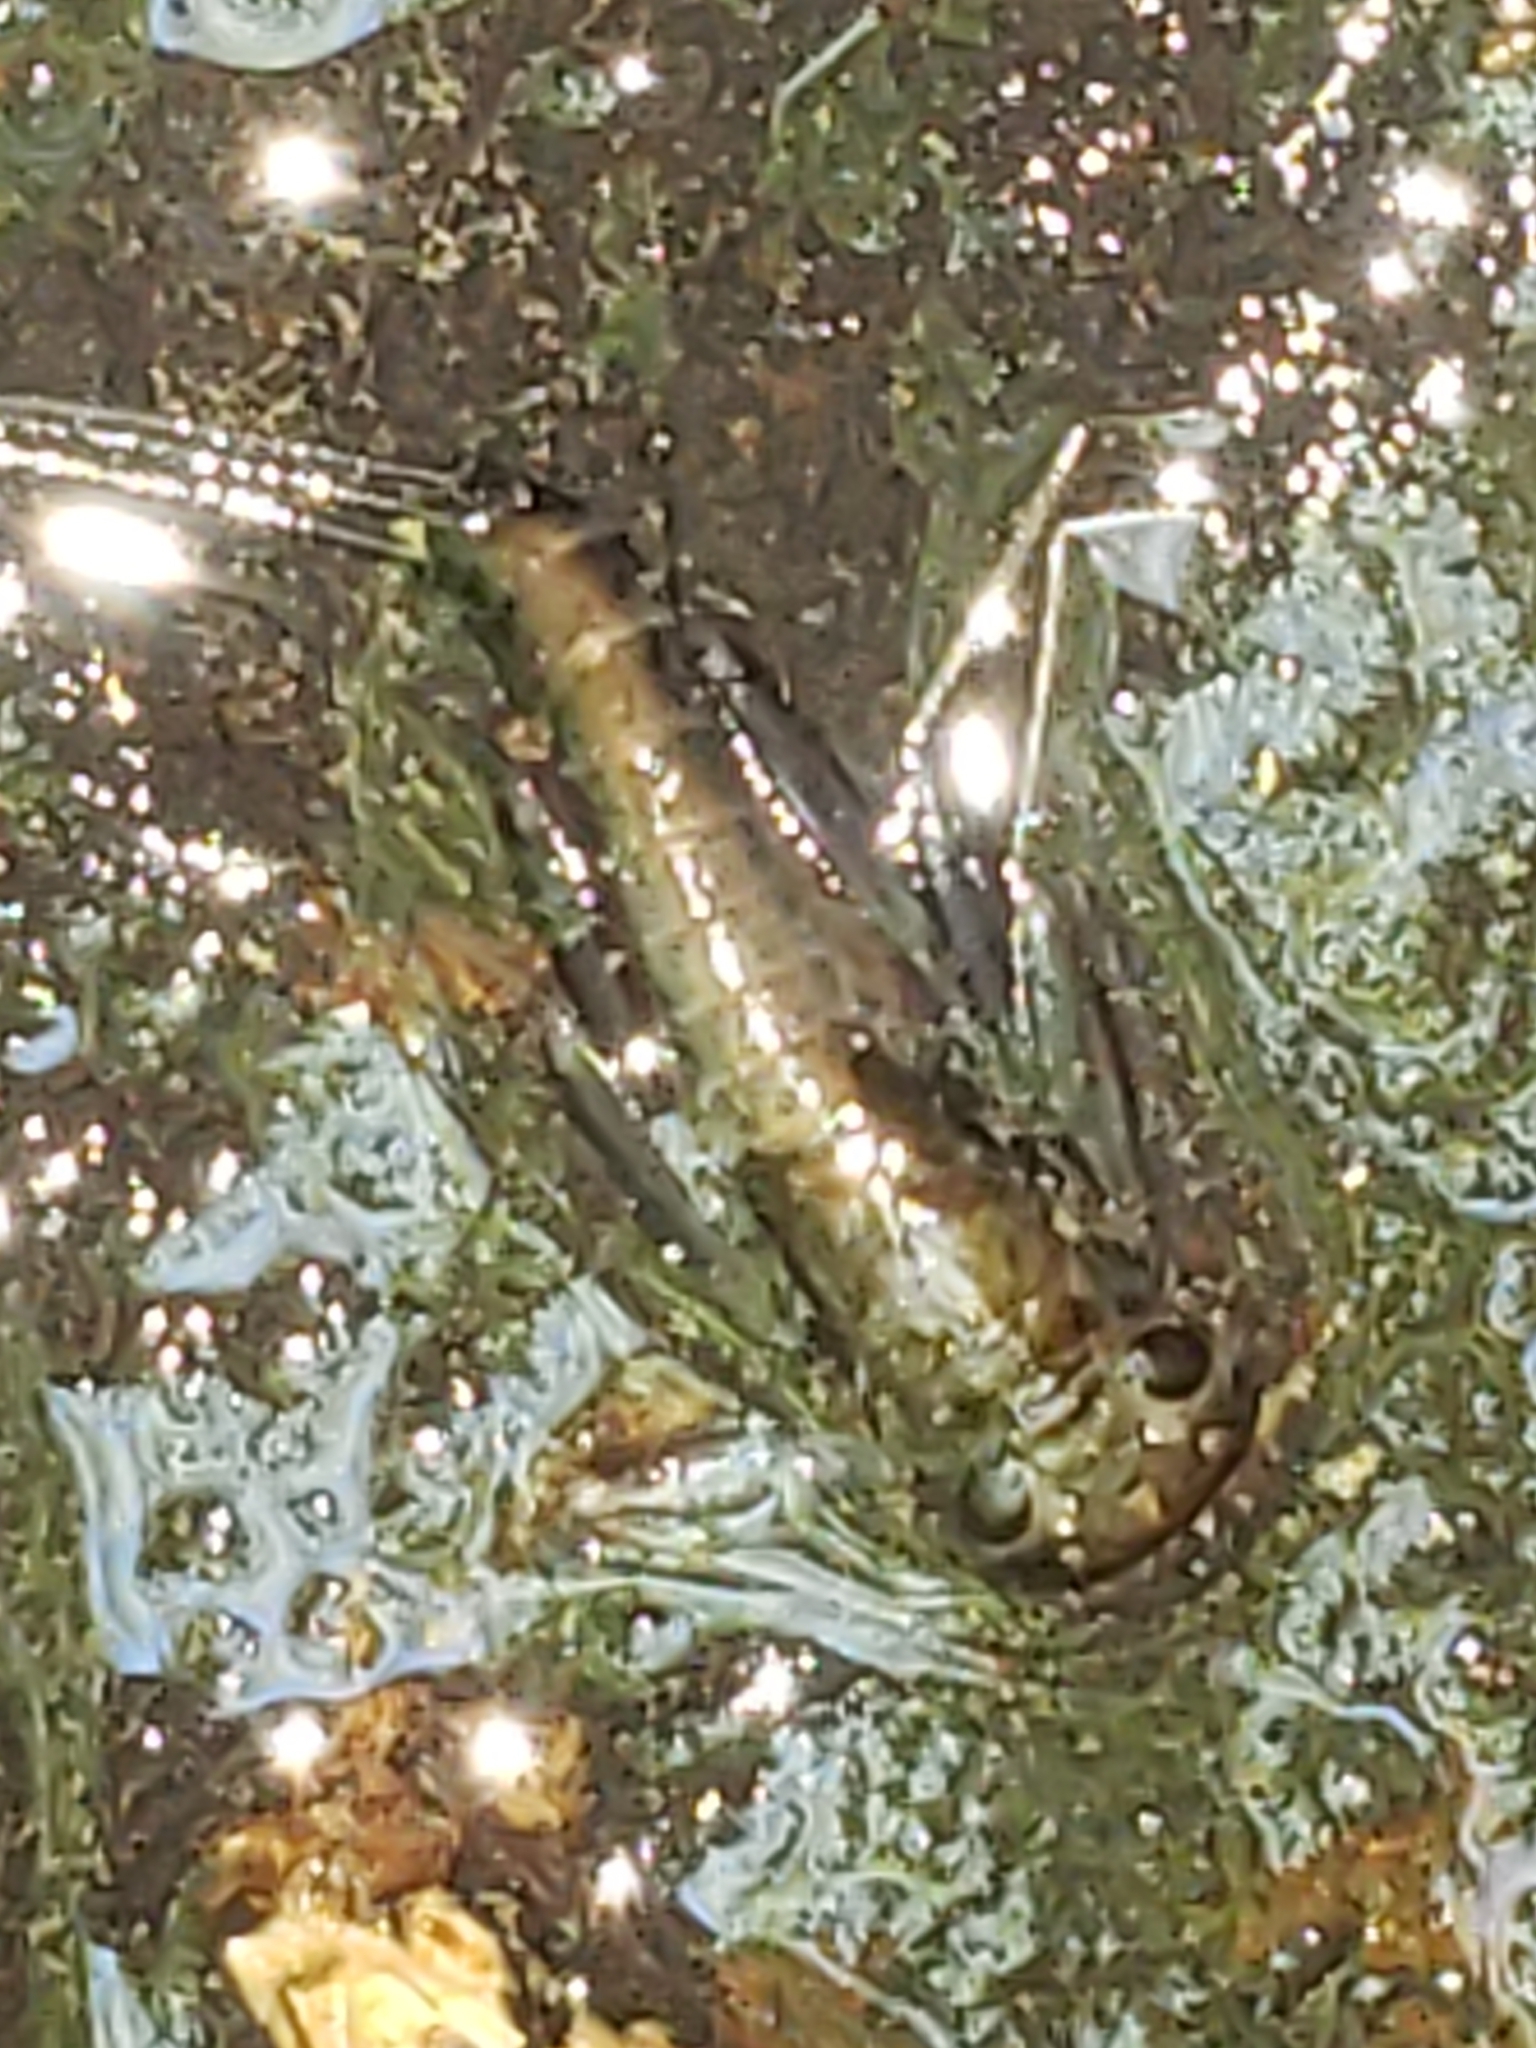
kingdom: Animalia
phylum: Arthropoda
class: Insecta
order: Ephemeroptera
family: Heptageniidae
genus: Stenacron
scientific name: Stenacron interpunctatum
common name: Orange cahill
